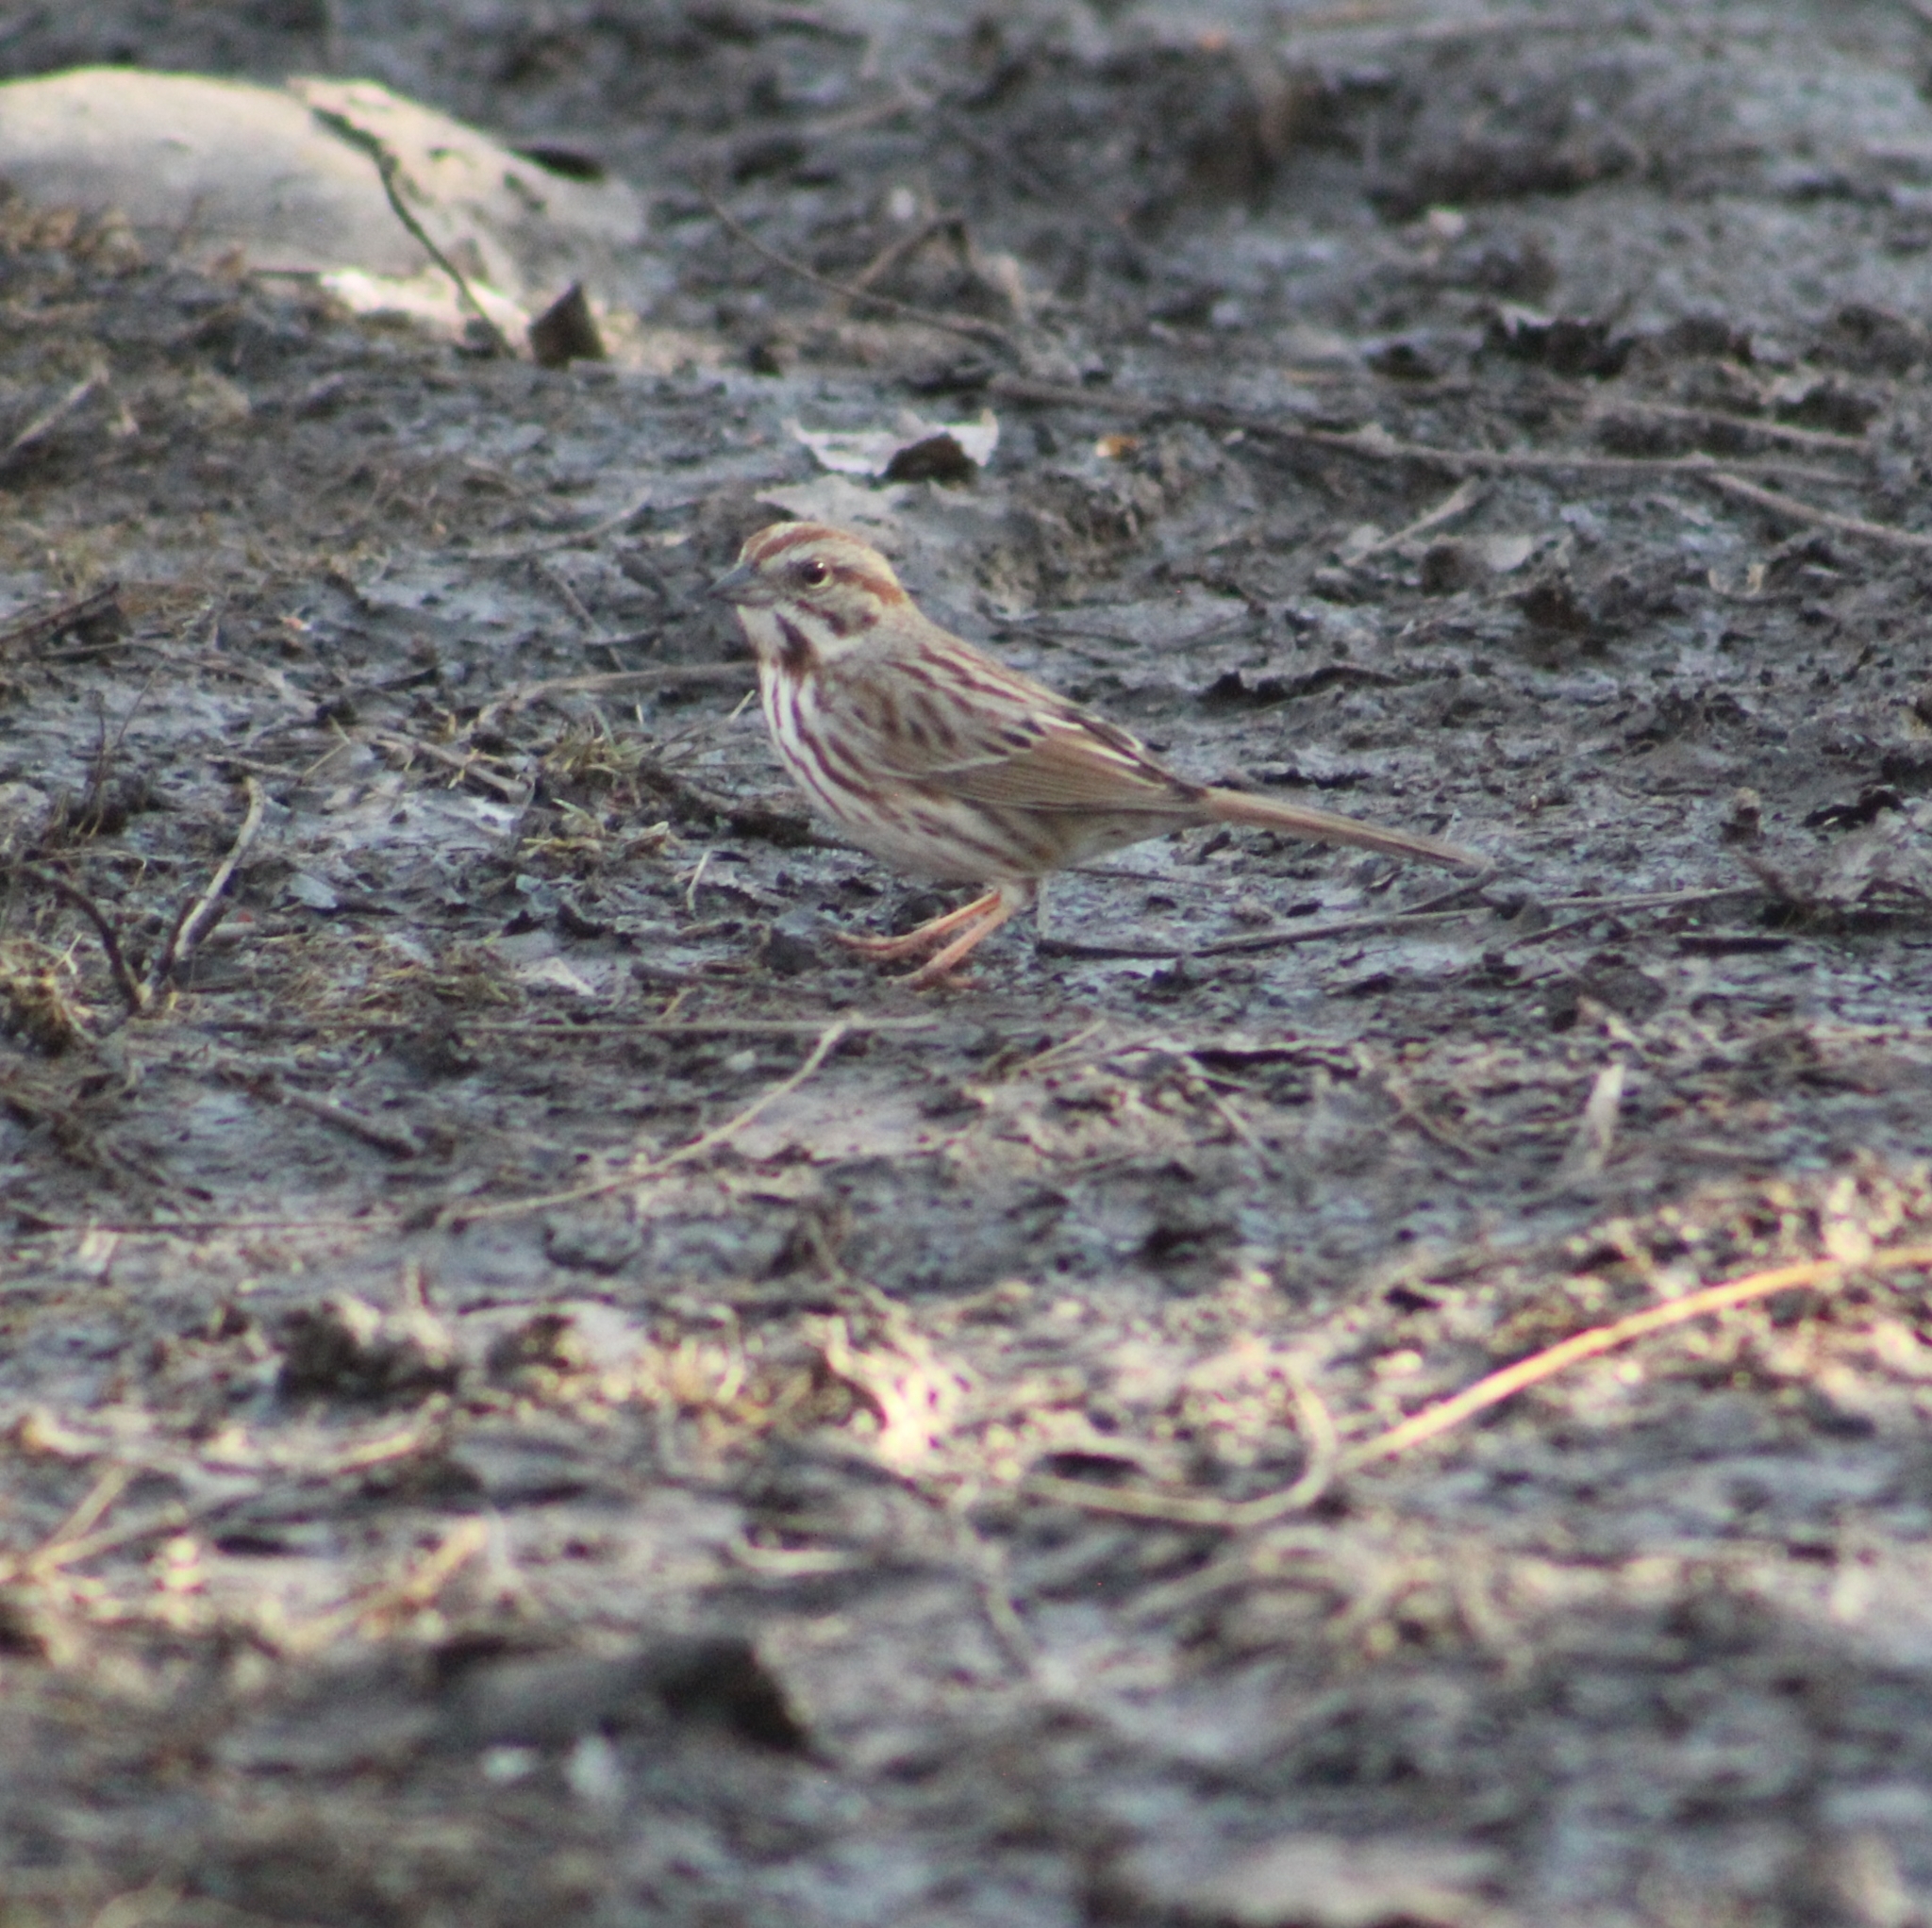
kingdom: Animalia
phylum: Chordata
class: Aves
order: Passeriformes
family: Passerellidae
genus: Melospiza
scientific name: Melospiza melodia
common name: Song sparrow
